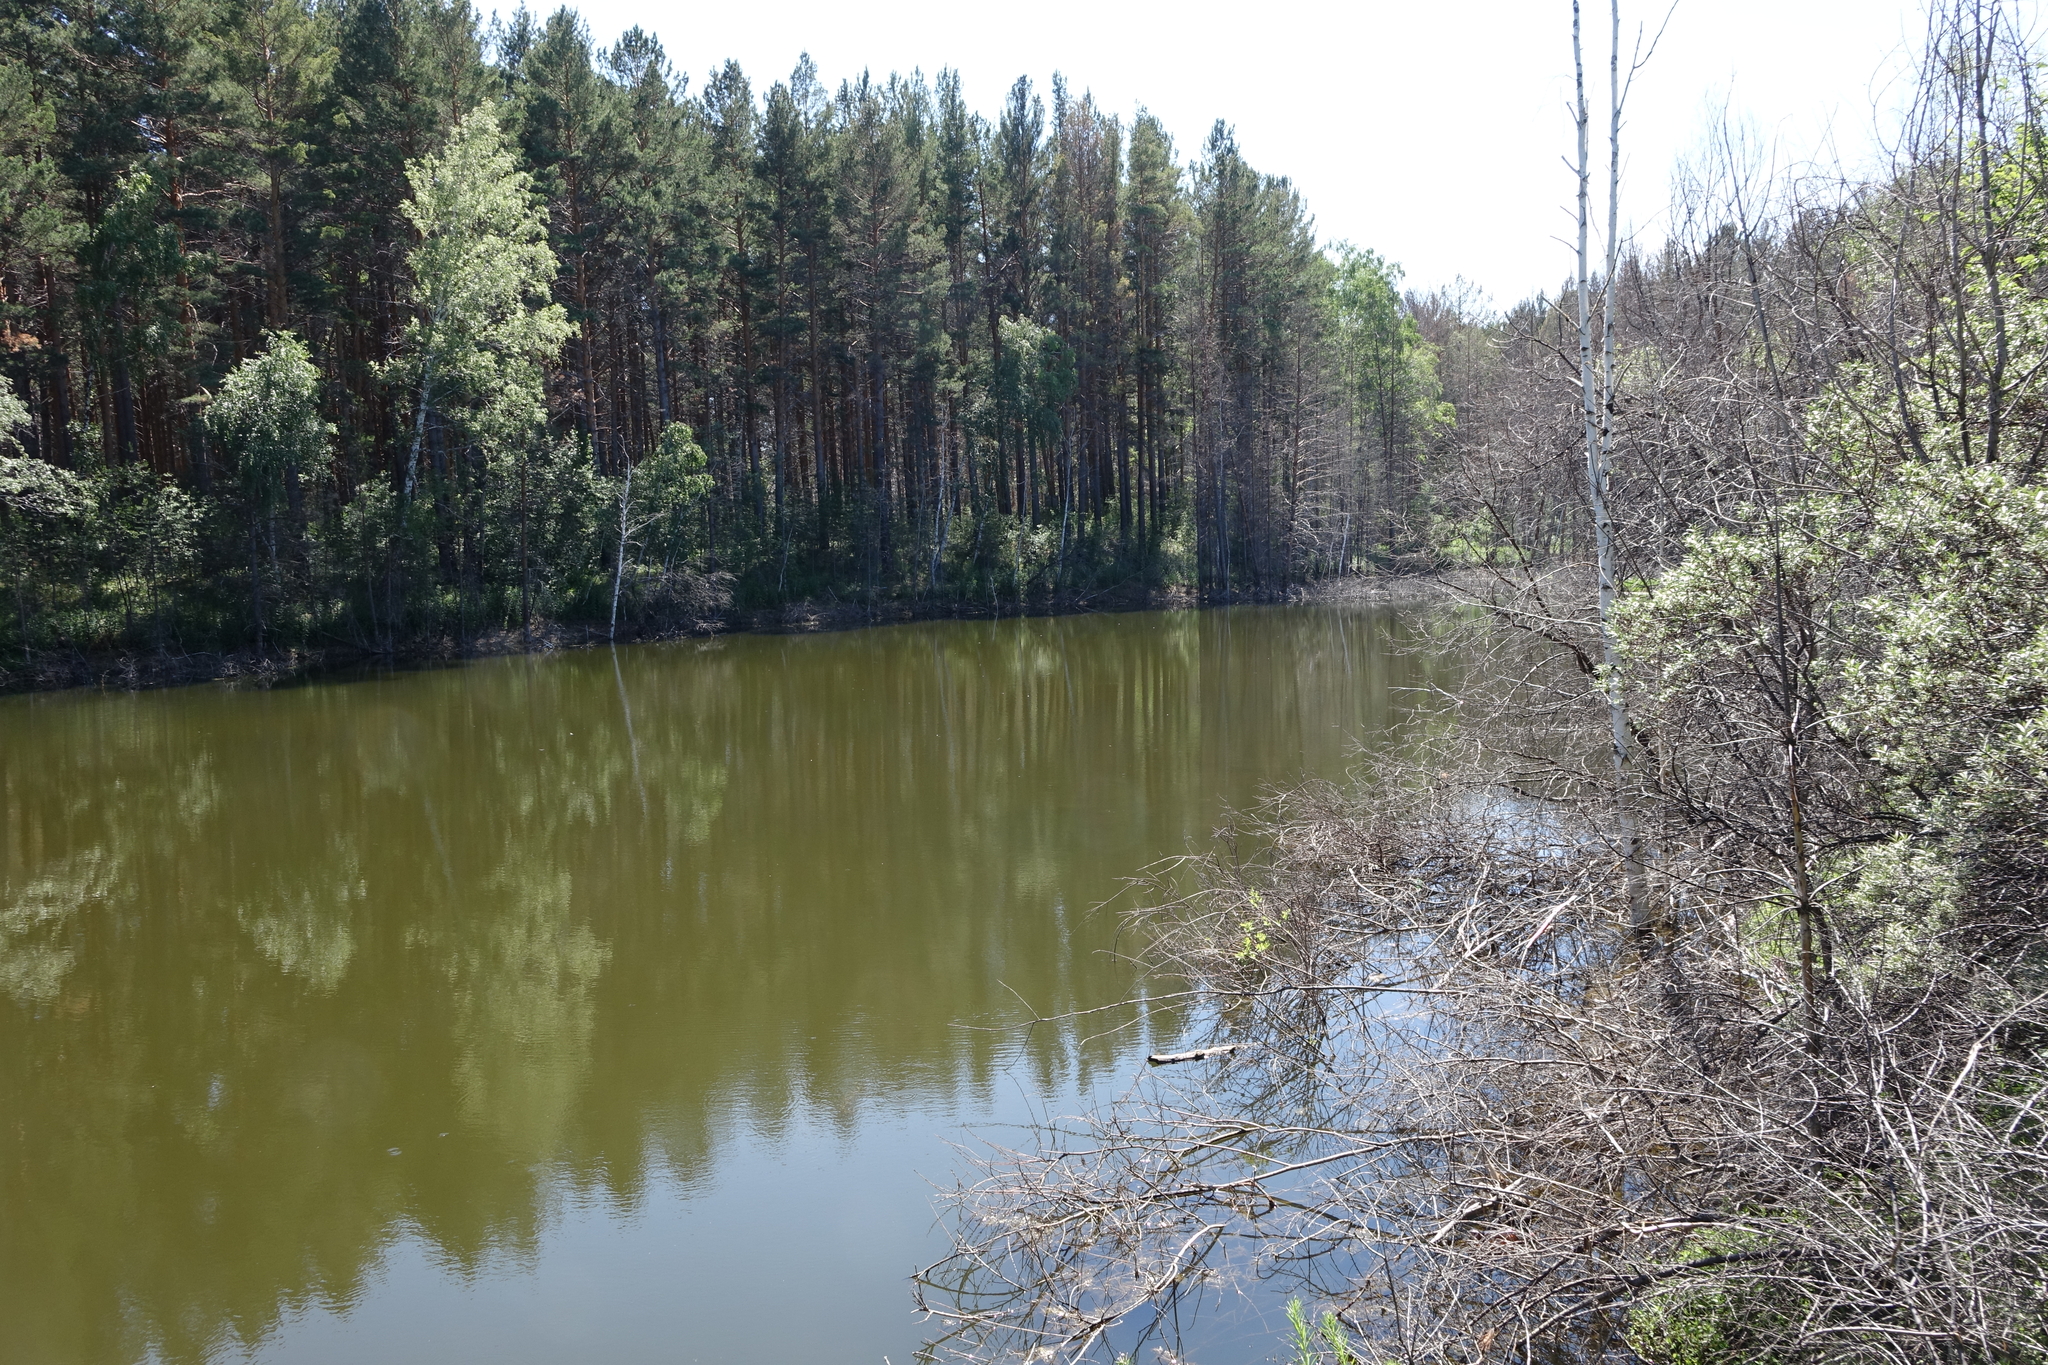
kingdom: Plantae
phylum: Tracheophyta
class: Pinopsida
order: Pinales
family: Pinaceae
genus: Pinus
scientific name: Pinus sylvestris
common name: Scots pine
